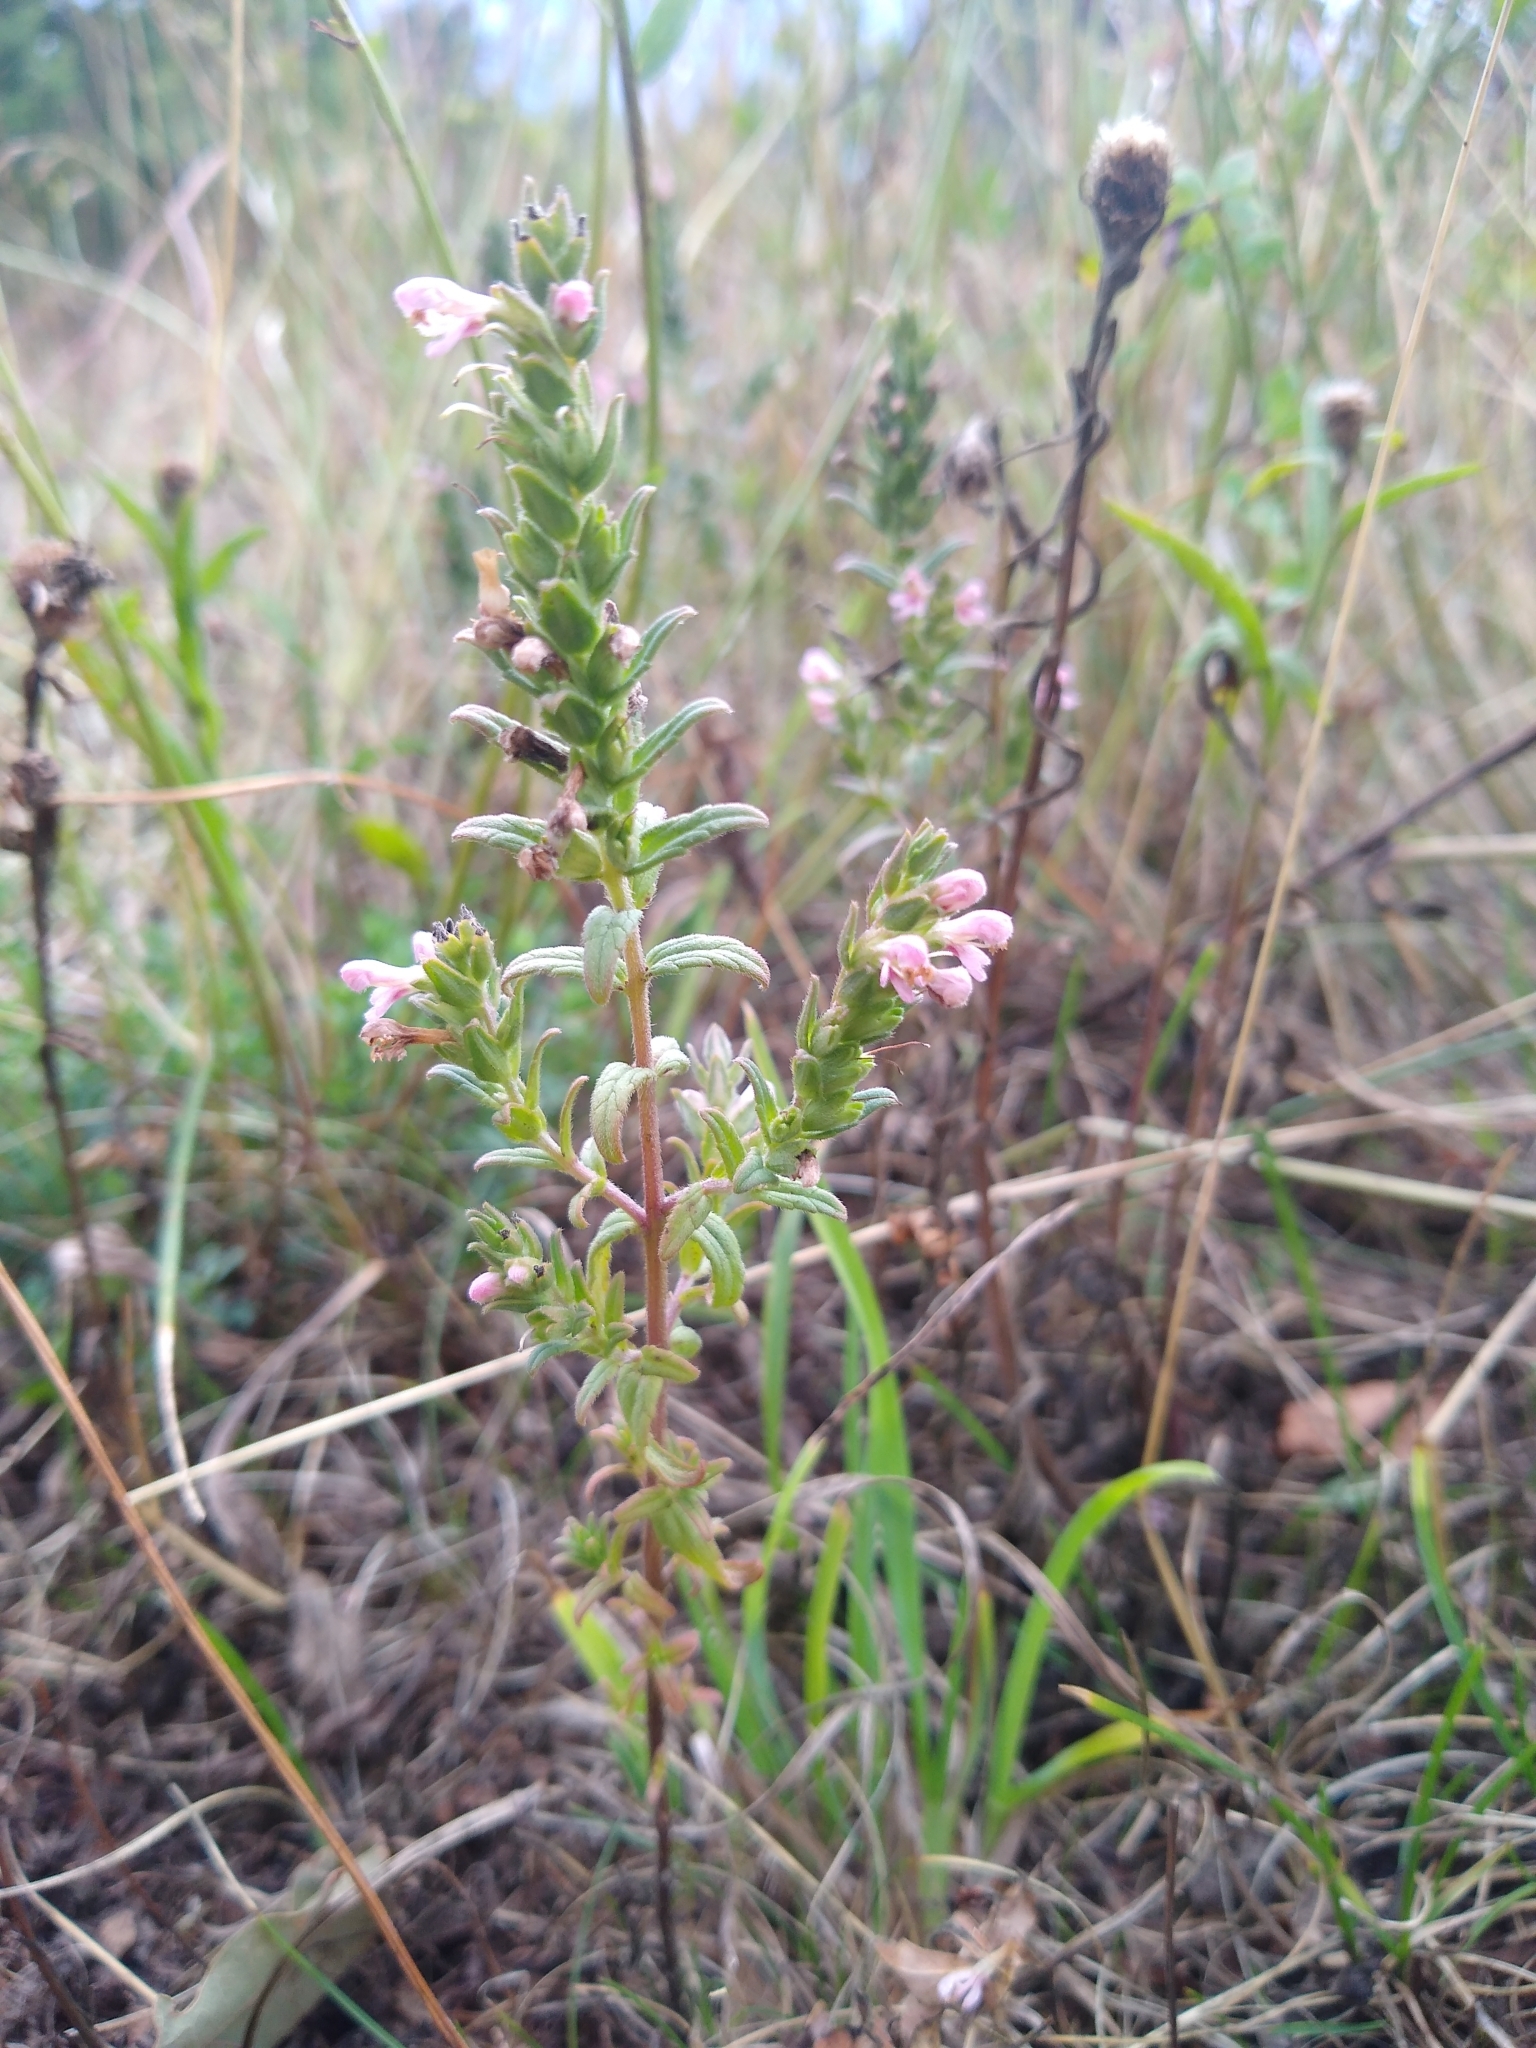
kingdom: Plantae
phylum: Tracheophyta
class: Magnoliopsida
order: Lamiales
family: Orobanchaceae
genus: Odontites
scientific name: Odontites vulgaris
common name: Broomrape
